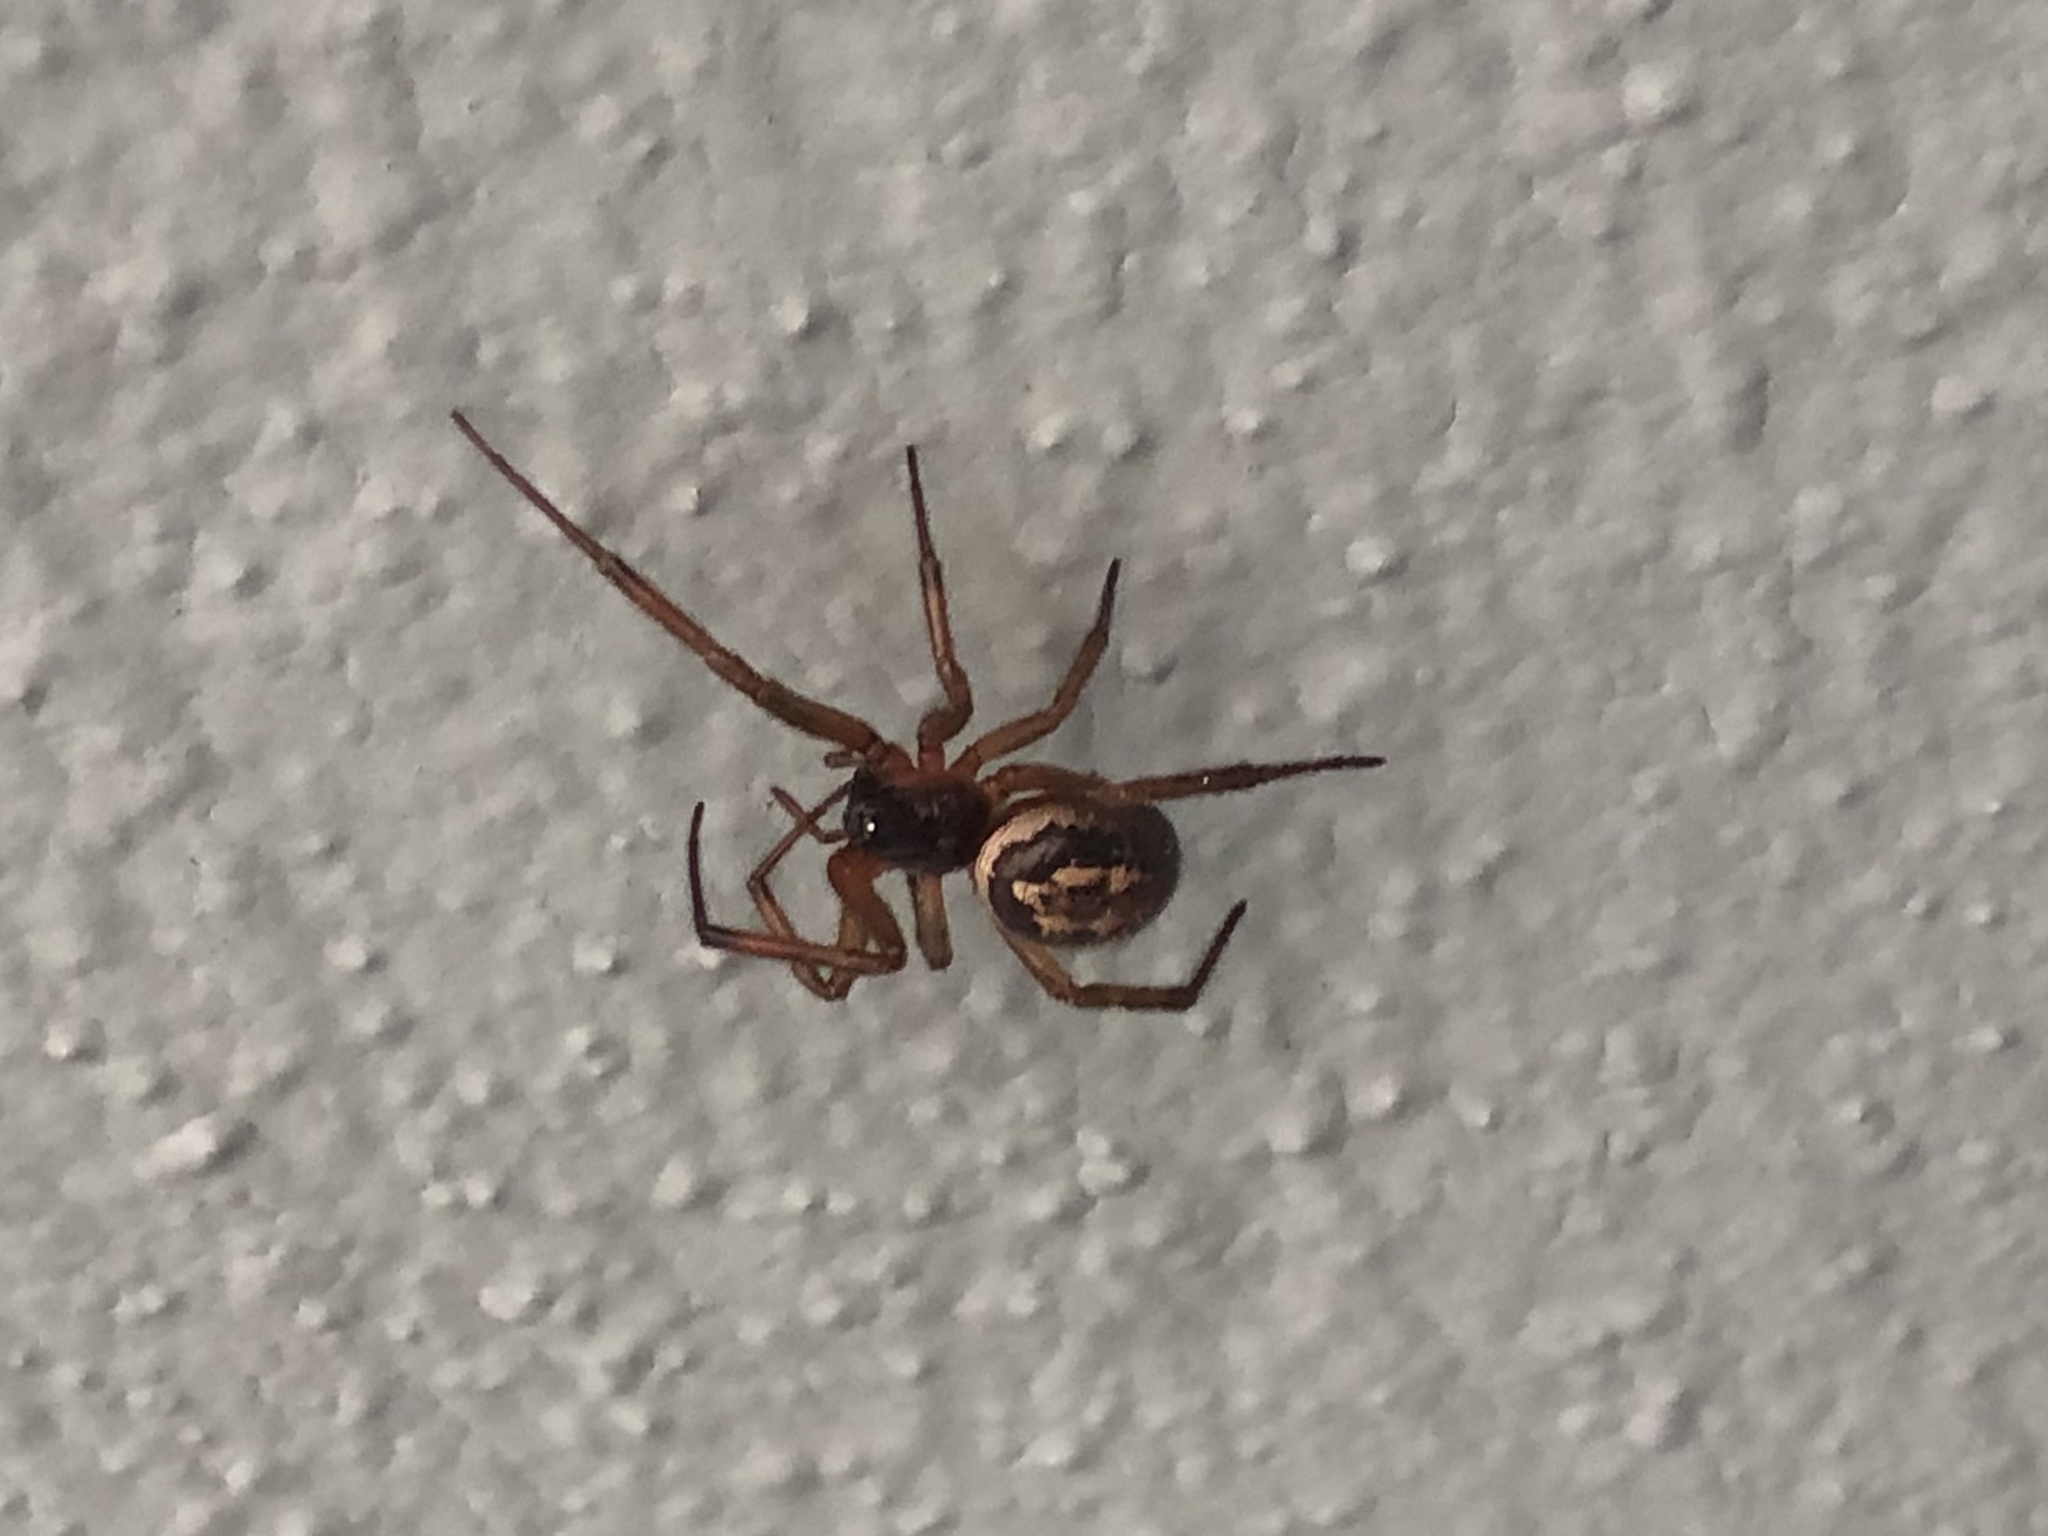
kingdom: Animalia
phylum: Arthropoda
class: Arachnida
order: Araneae
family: Theridiidae
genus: Steatoda
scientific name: Steatoda nobilis
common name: Cobweb weaver
